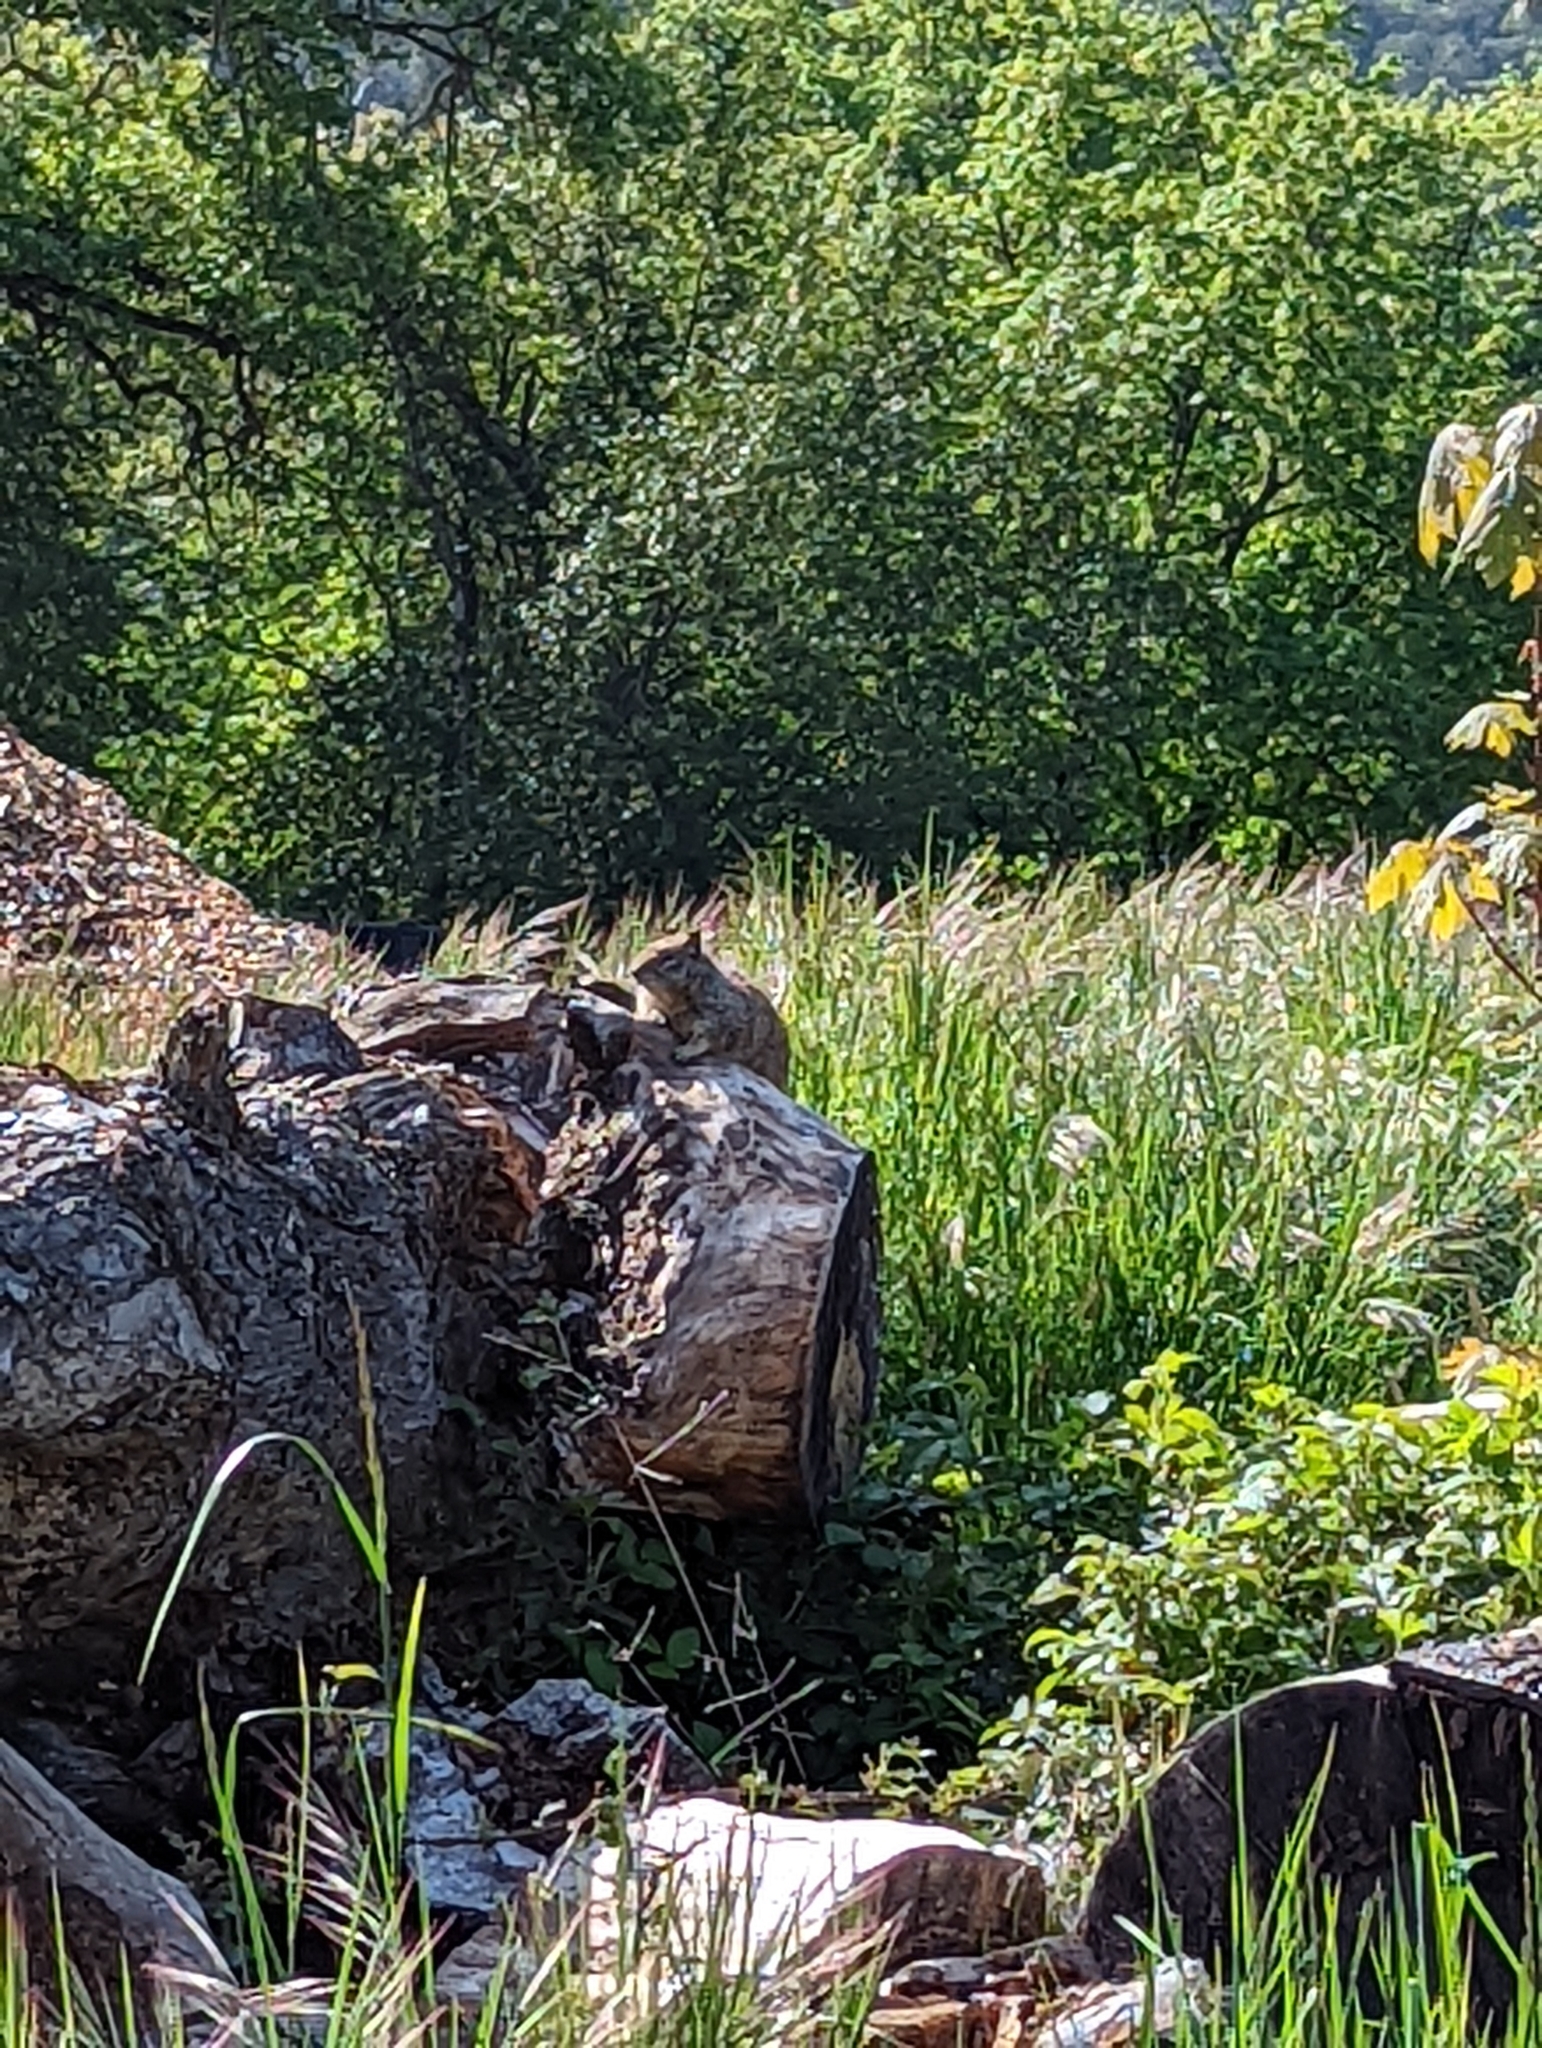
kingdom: Animalia
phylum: Chordata
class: Mammalia
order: Rodentia
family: Sciuridae
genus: Otospermophilus
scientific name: Otospermophilus beecheyi
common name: California ground squirrel
